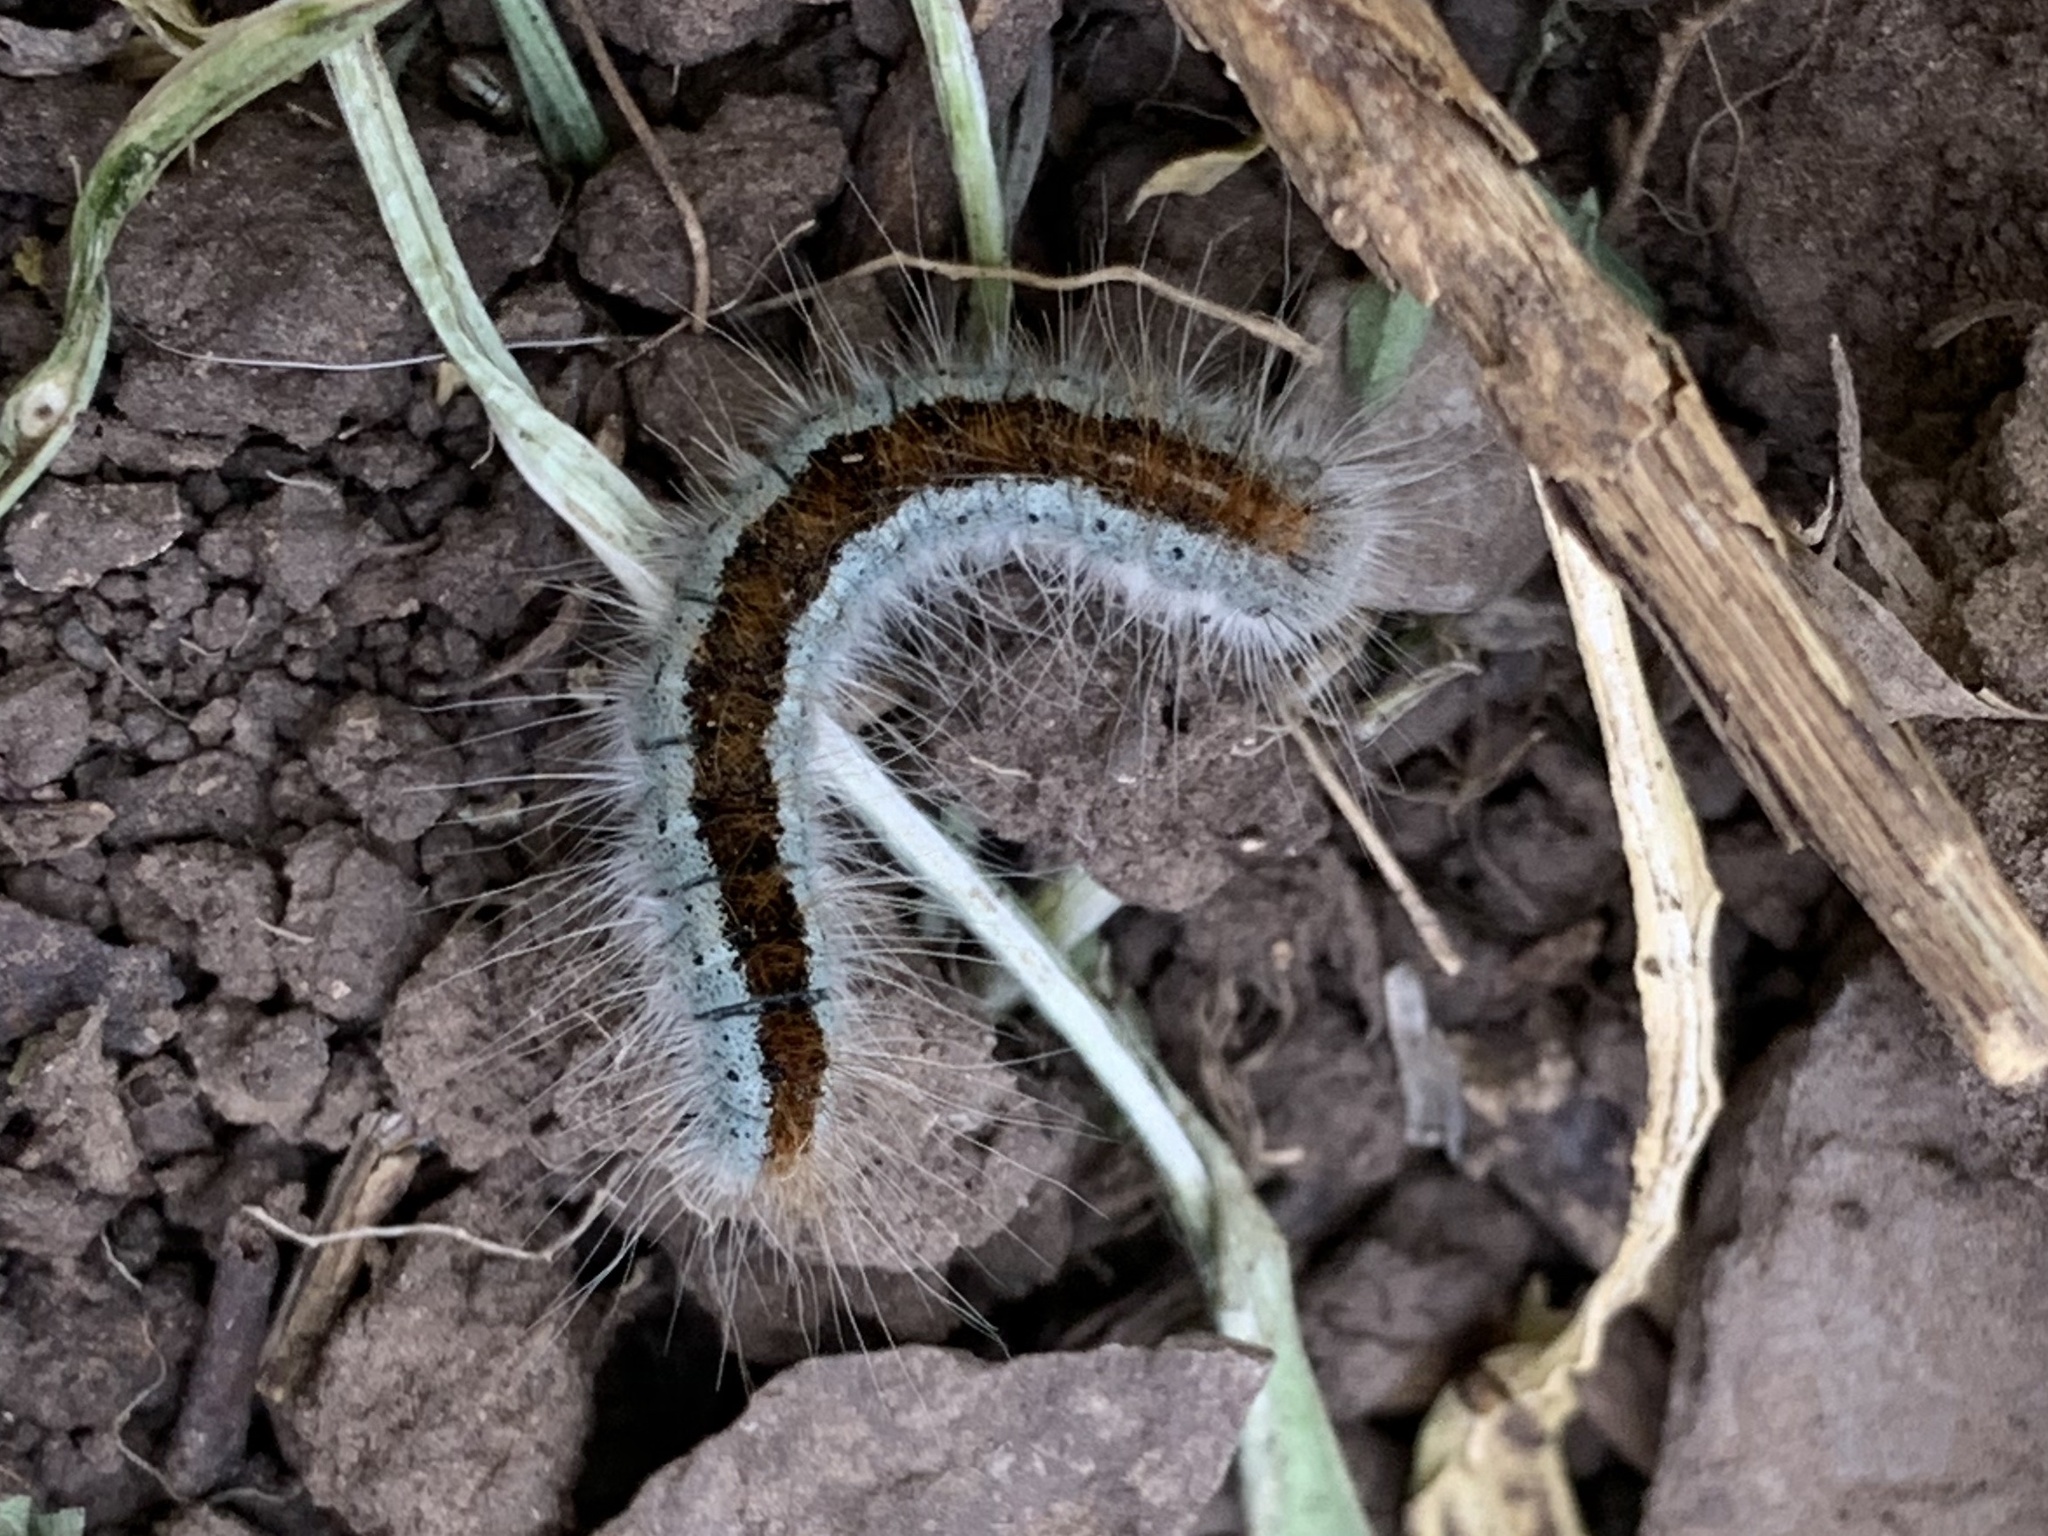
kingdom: Animalia
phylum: Arthropoda
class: Insecta
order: Lepidoptera
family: Lasiocampidae
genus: Malacosoma
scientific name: Malacosoma incurva
